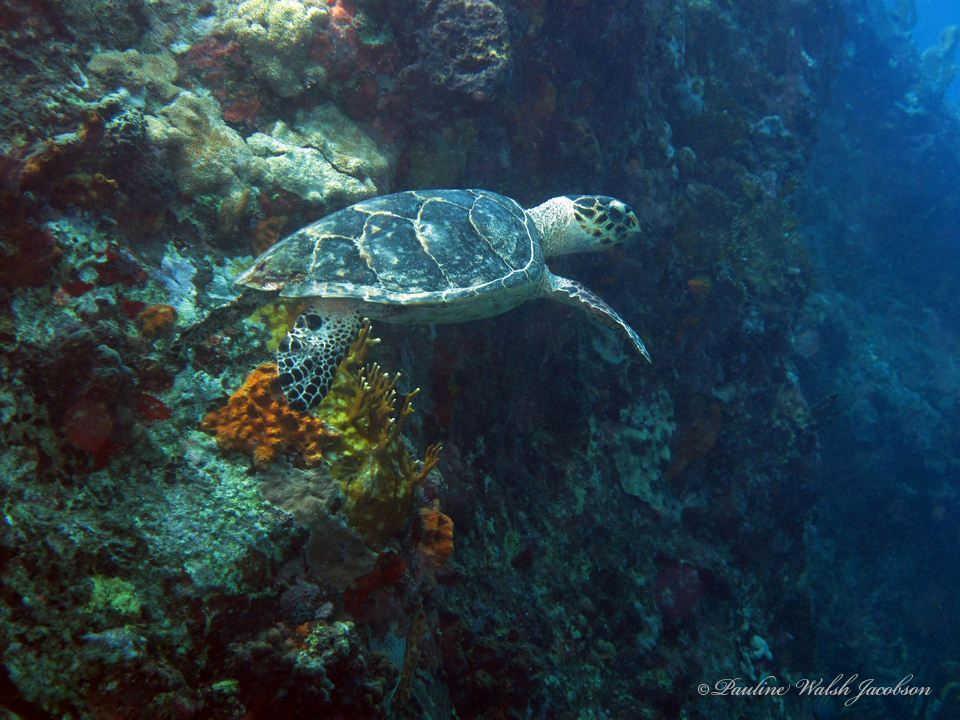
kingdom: Animalia
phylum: Chordata
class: Testudines
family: Cheloniidae
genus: Eretmochelys
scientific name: Eretmochelys imbricata
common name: Hawksbill turtle
